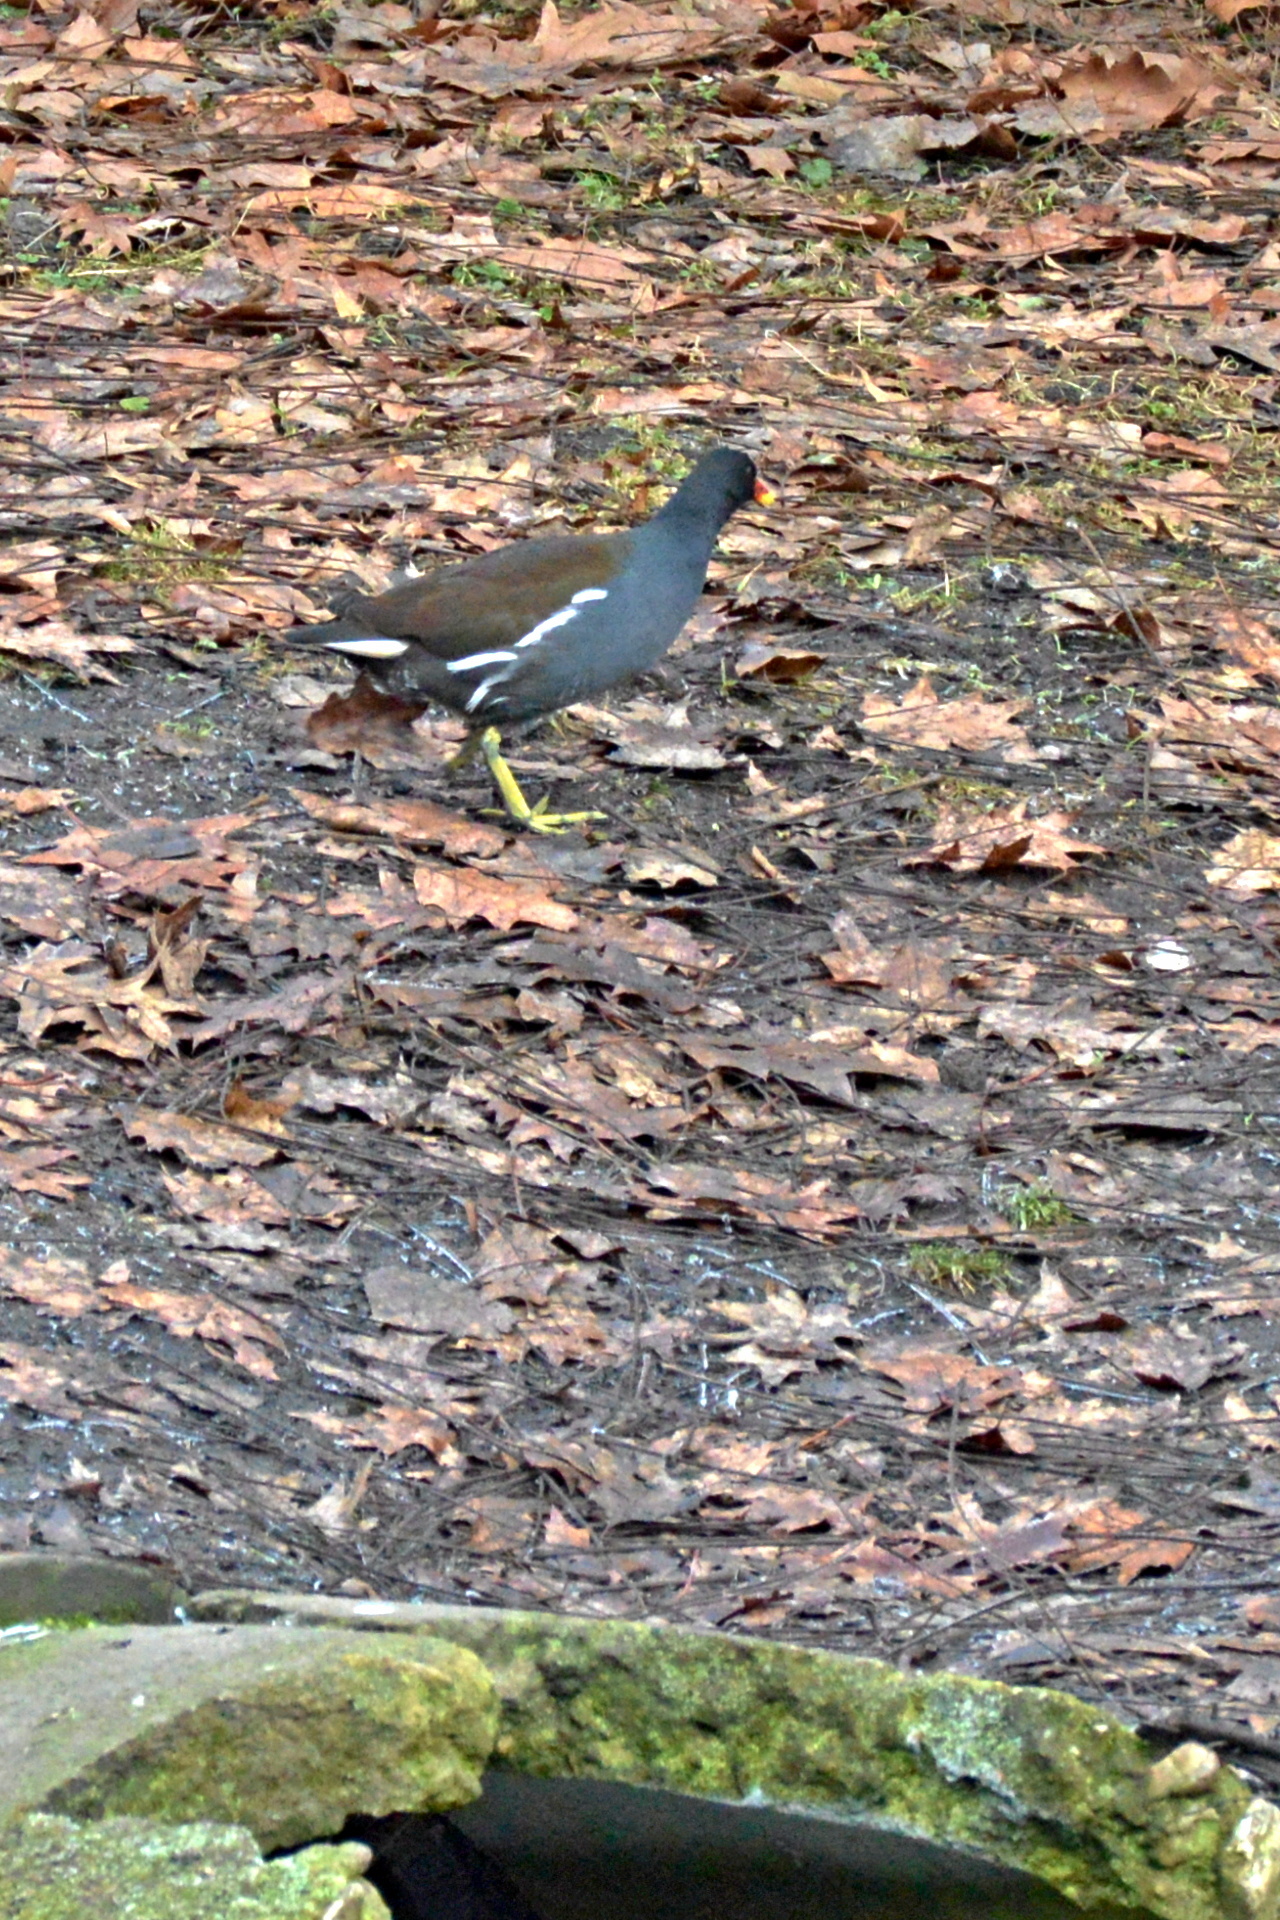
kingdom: Animalia
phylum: Chordata
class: Aves
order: Gruiformes
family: Rallidae
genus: Gallinula
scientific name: Gallinula chloropus
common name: Common moorhen
